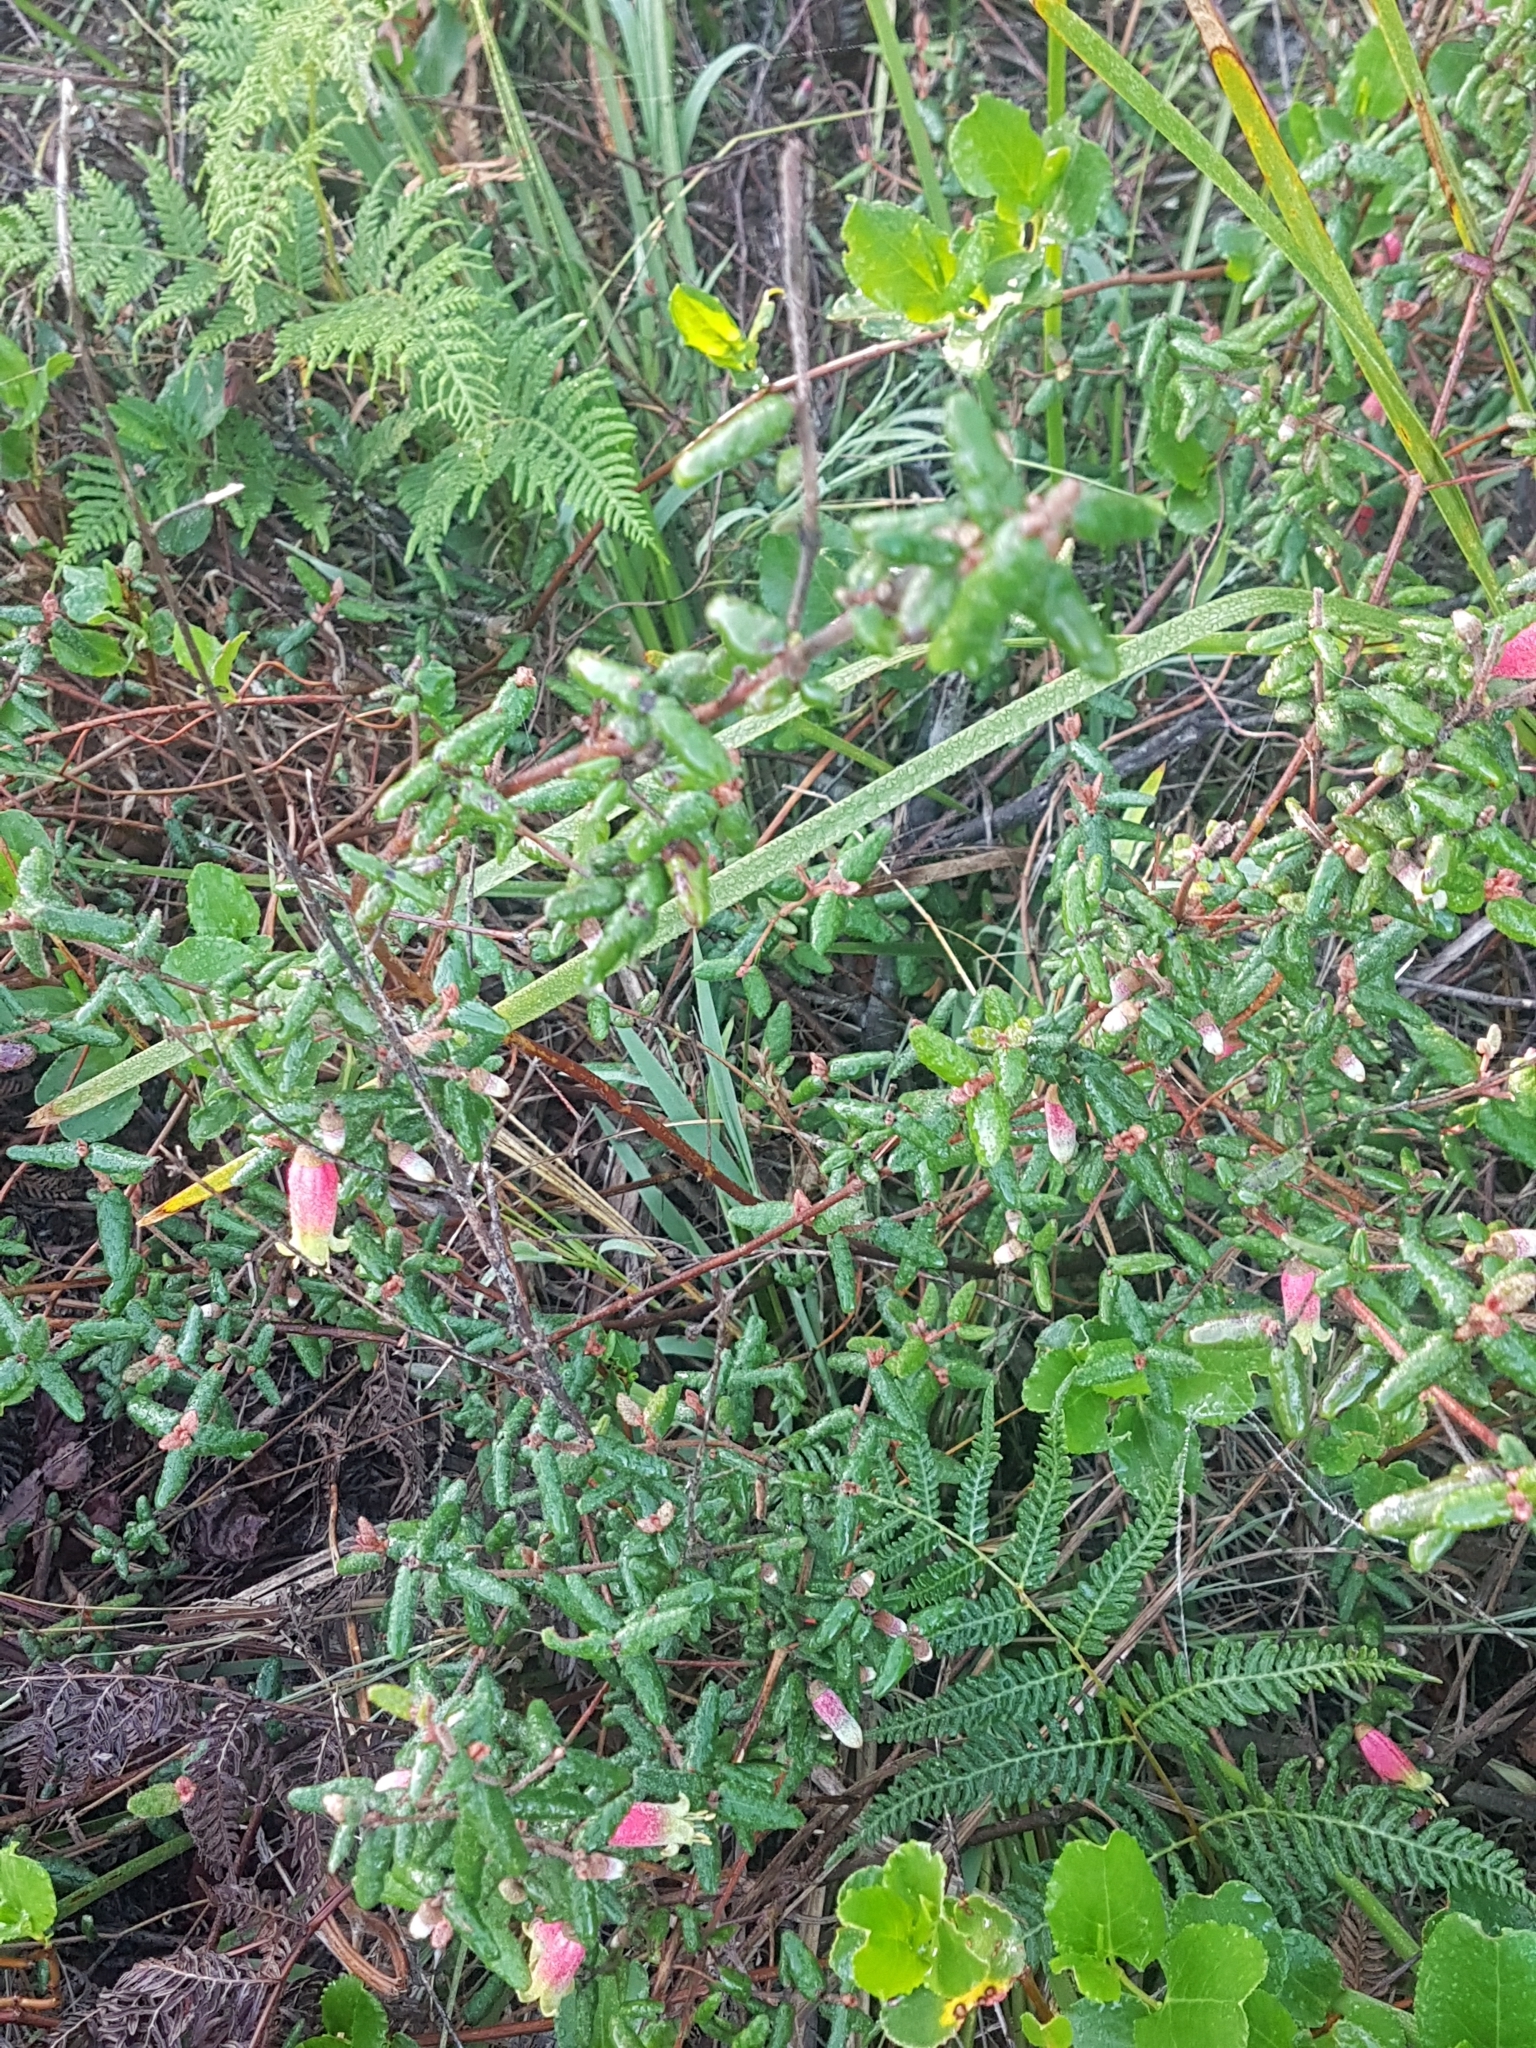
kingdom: Plantae
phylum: Tracheophyta
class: Magnoliopsida
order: Sapindales
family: Rutaceae
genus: Correa
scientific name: Correa reflexa
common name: Common correa
